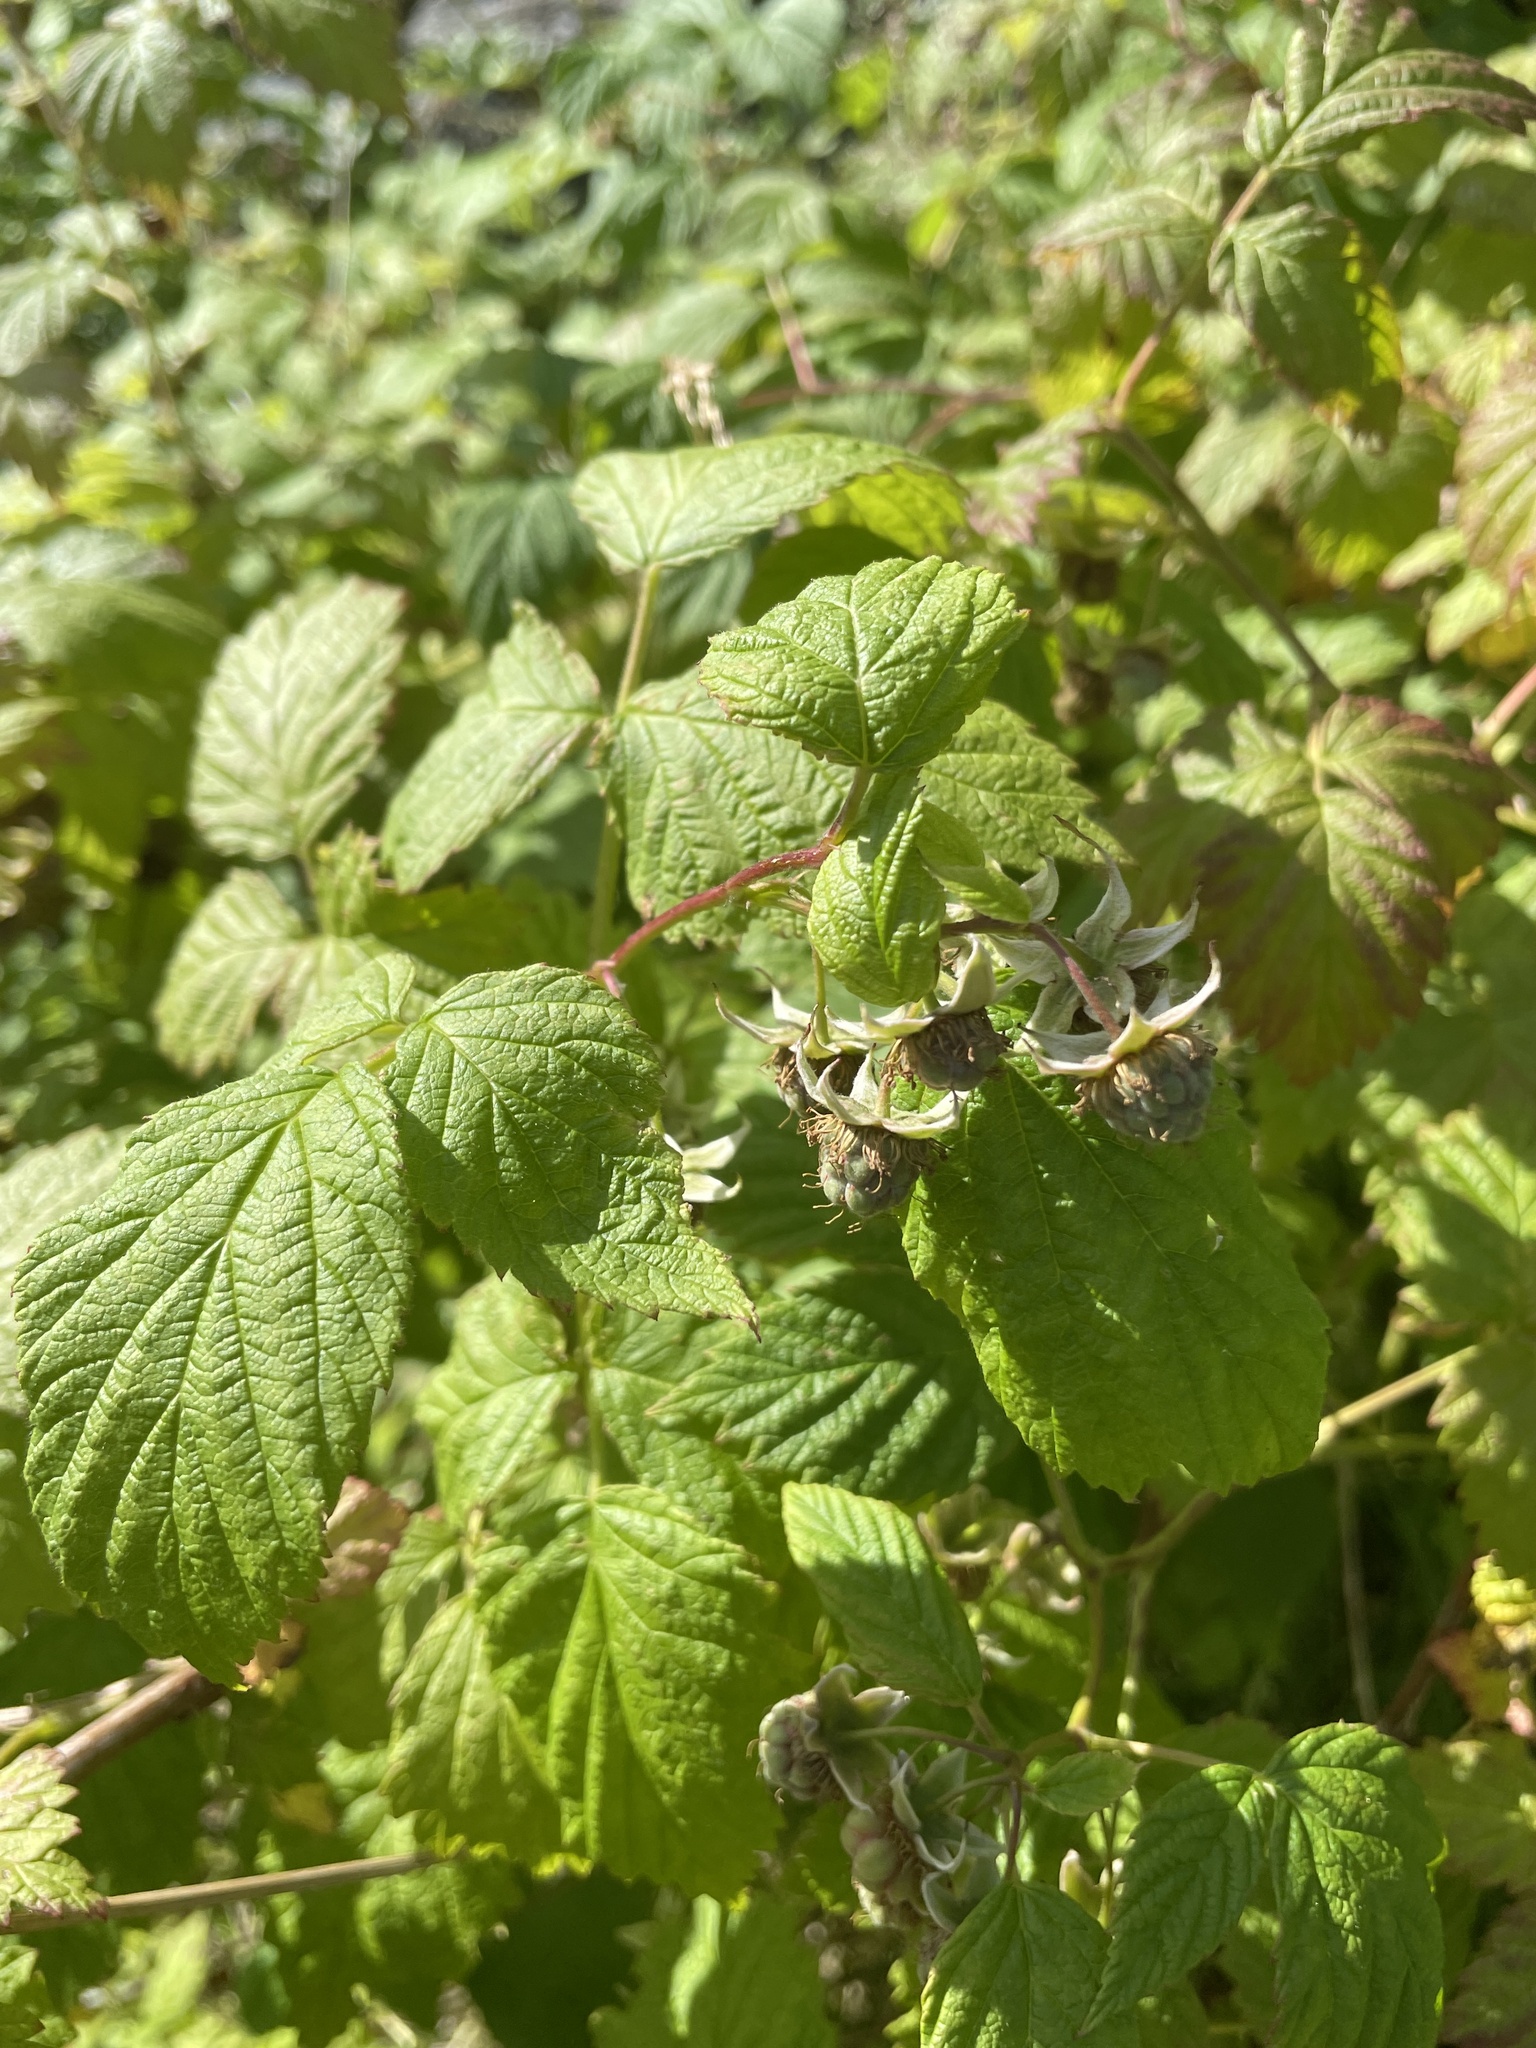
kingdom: Plantae
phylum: Tracheophyta
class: Magnoliopsida
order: Rosales
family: Rosaceae
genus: Rubus
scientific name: Rubus idaeus
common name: Raspberry
